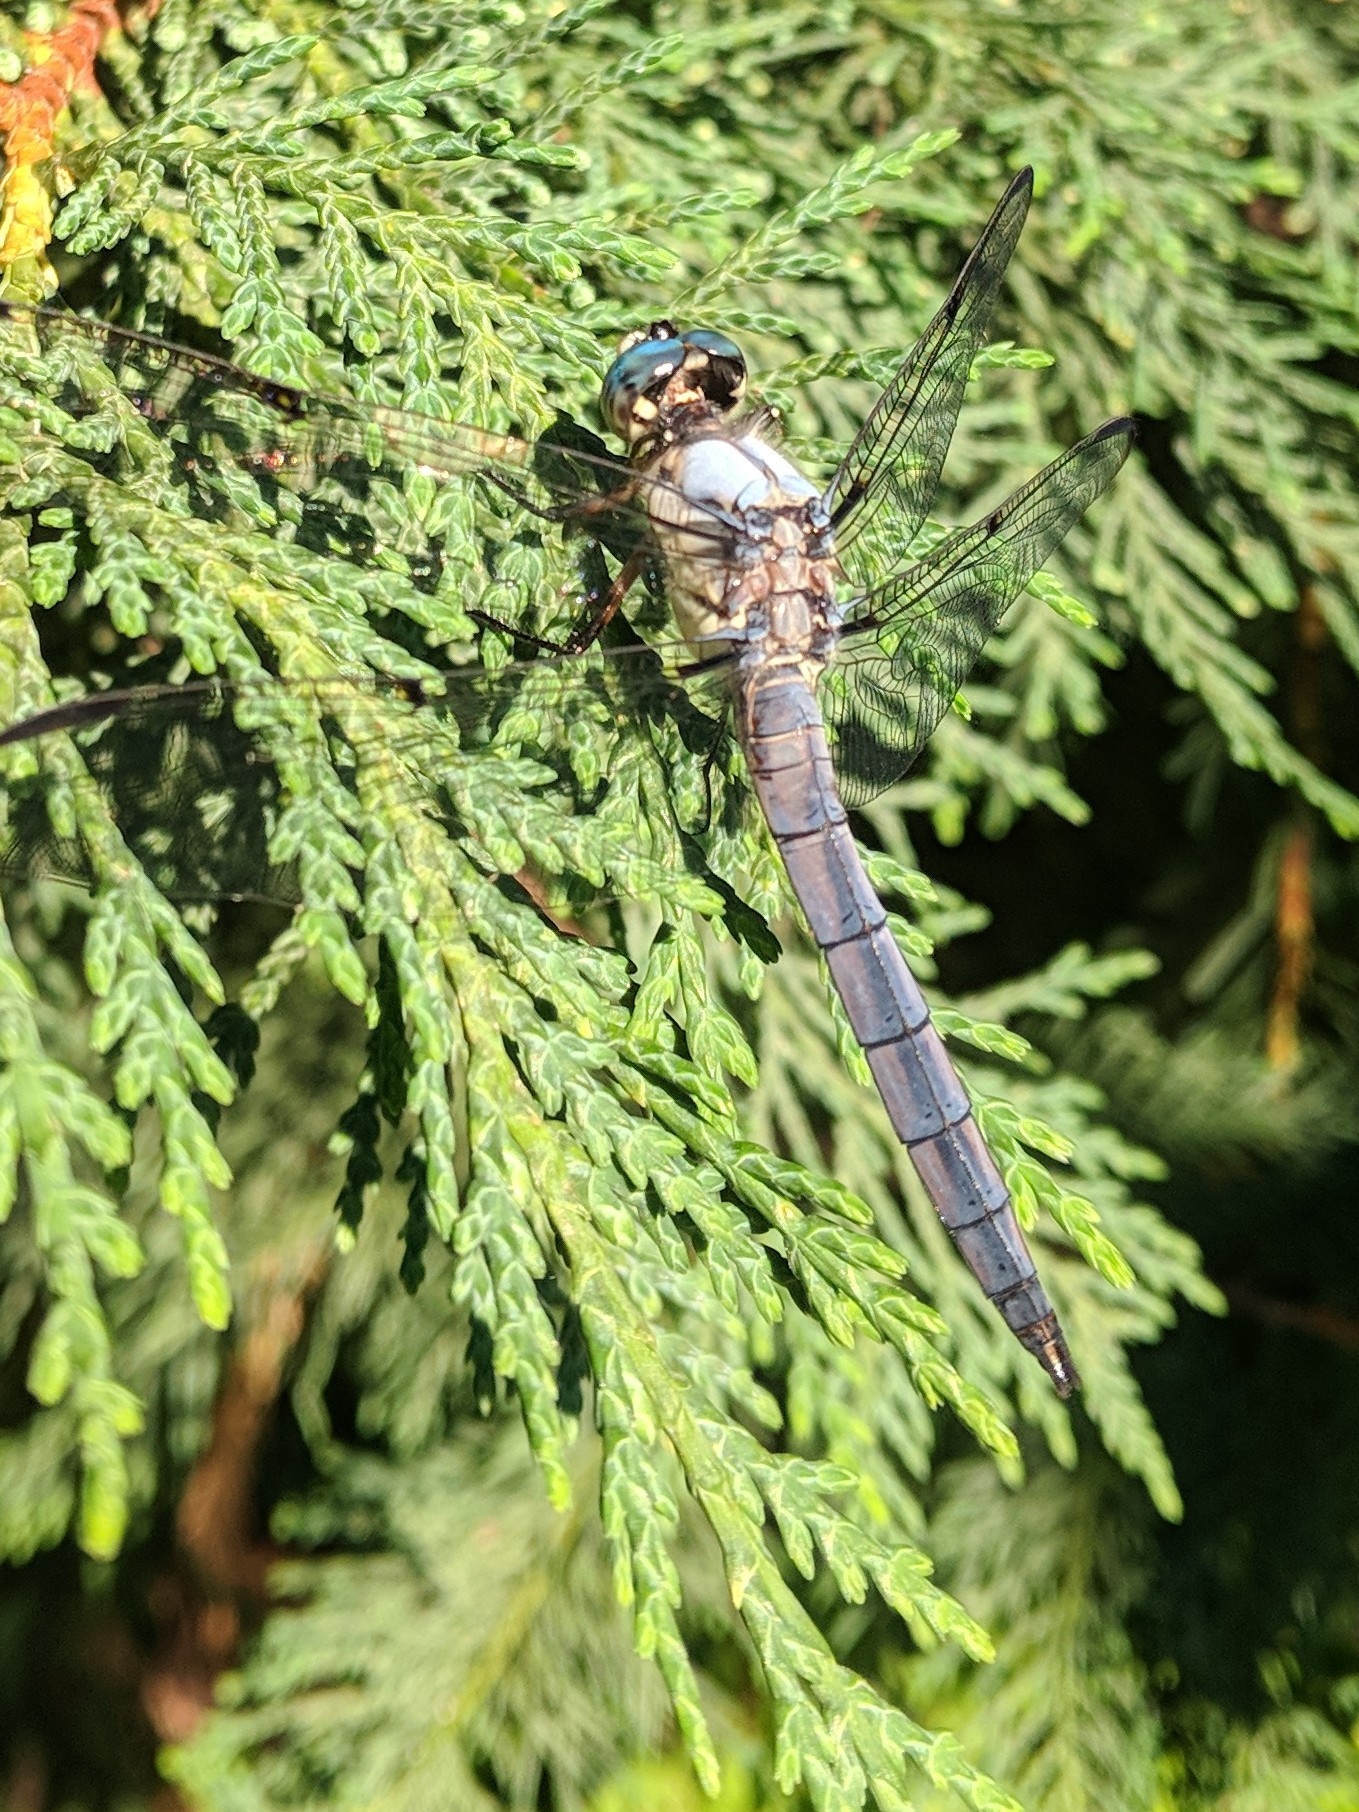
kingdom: Animalia
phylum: Arthropoda
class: Insecta
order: Odonata
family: Libellulidae
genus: Libellula
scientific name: Libellula vibrans
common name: Great blue skimmer
